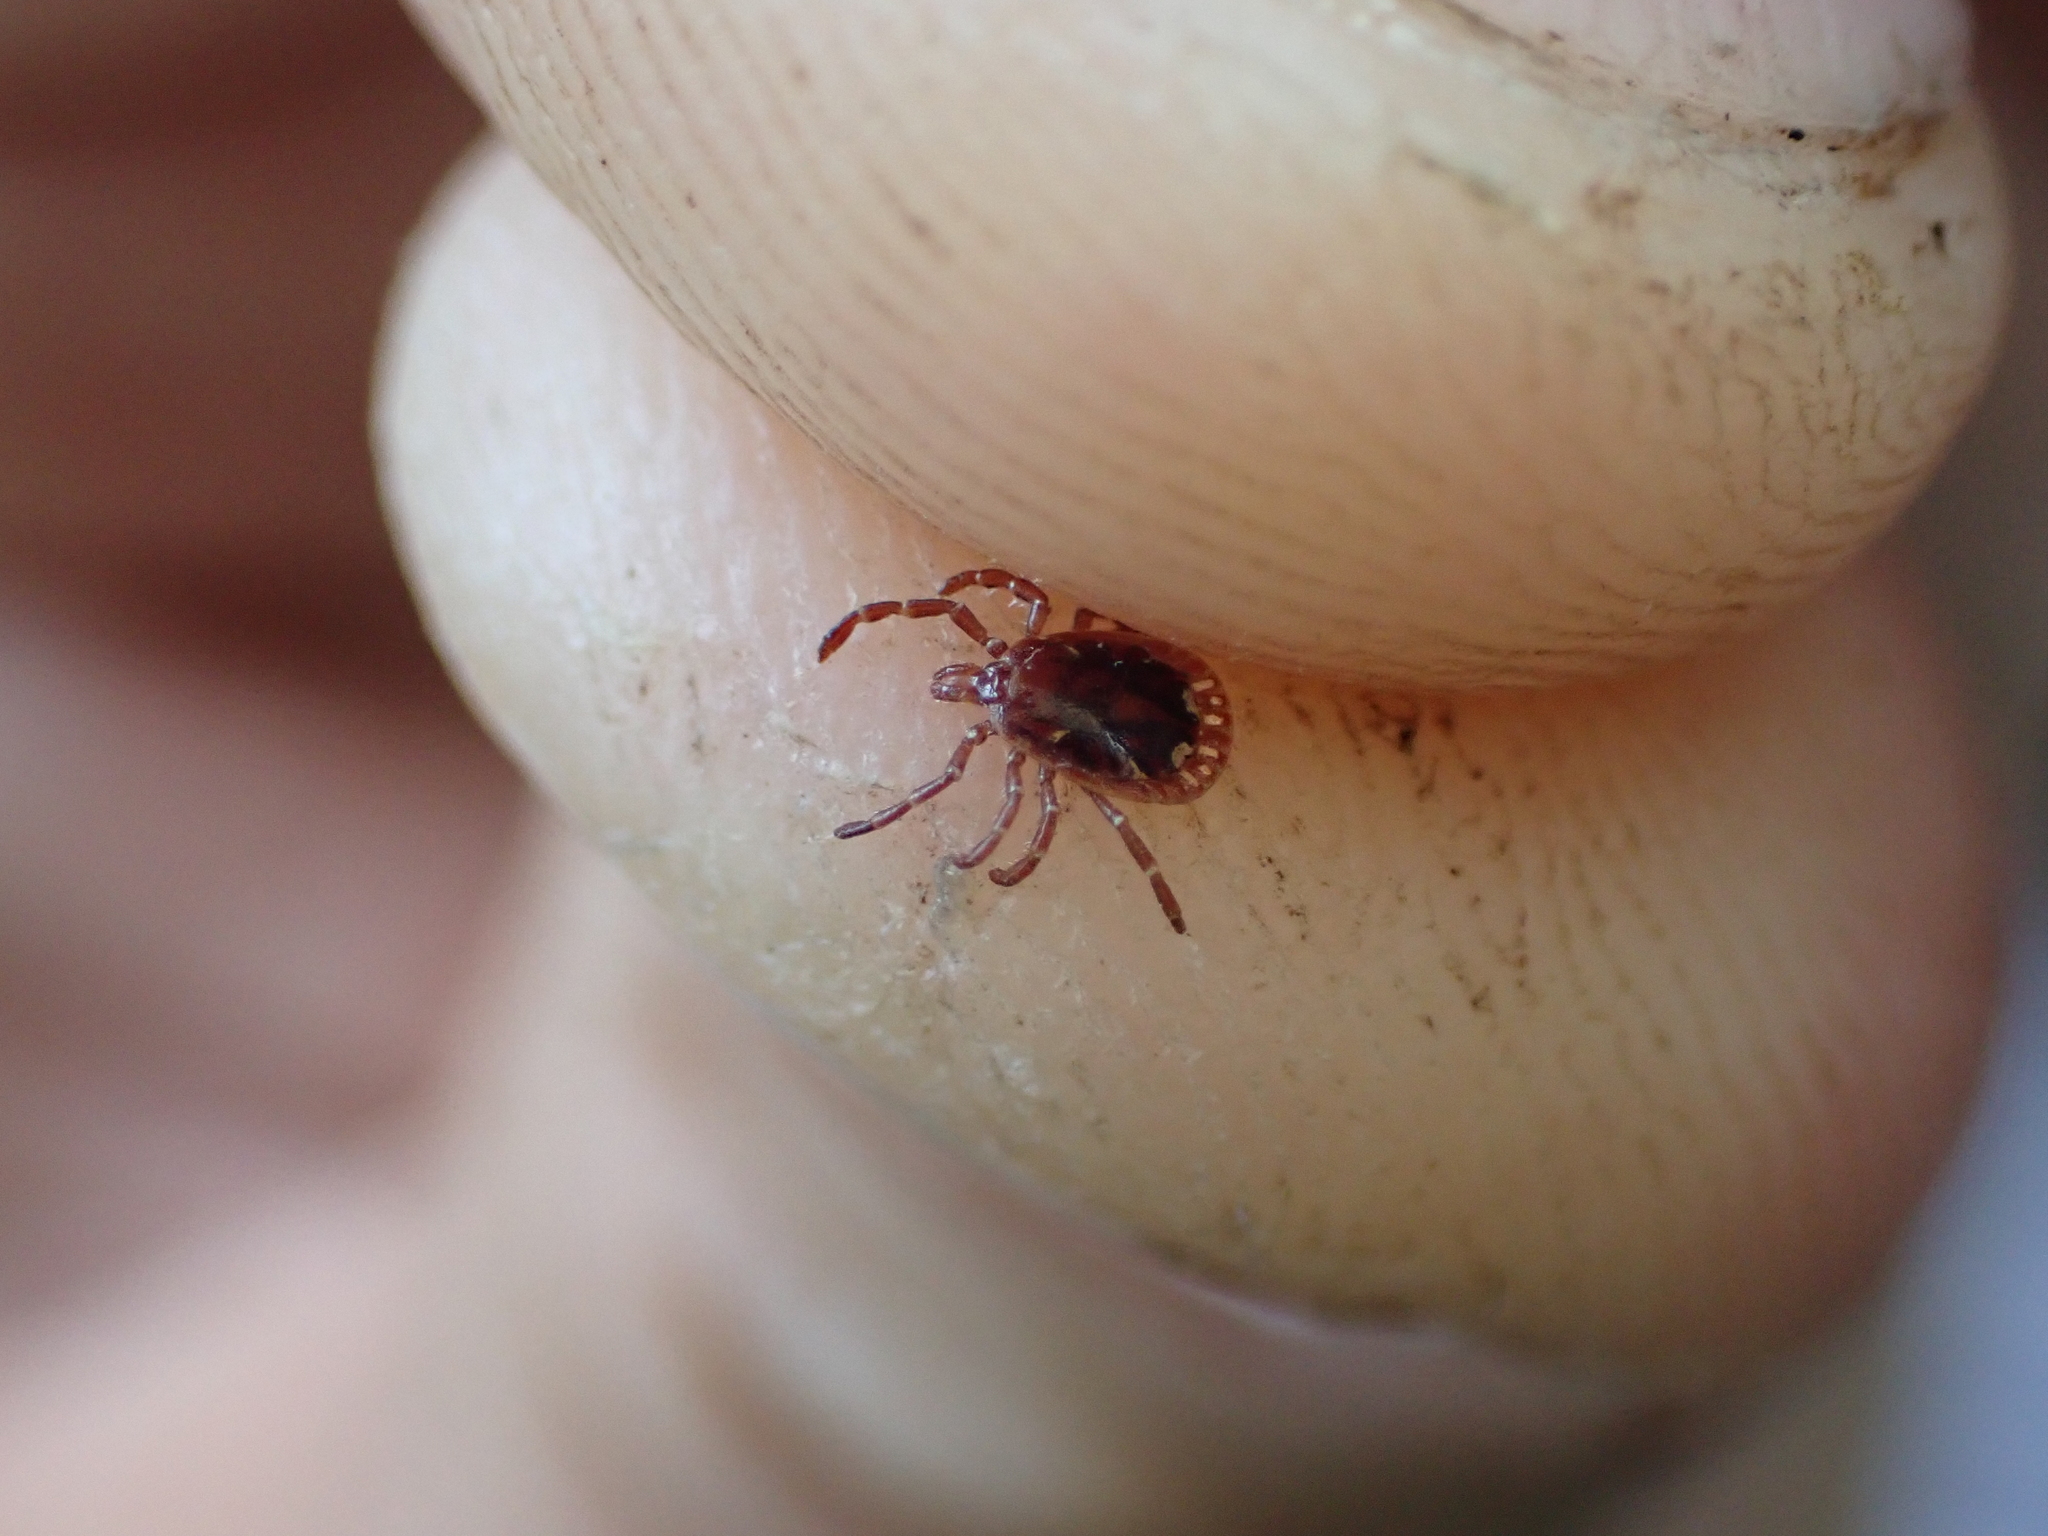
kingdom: Animalia
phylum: Arthropoda
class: Arachnida
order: Ixodida
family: Ixodidae
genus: Amblyomma
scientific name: Amblyomma americanum
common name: Lone star tick
